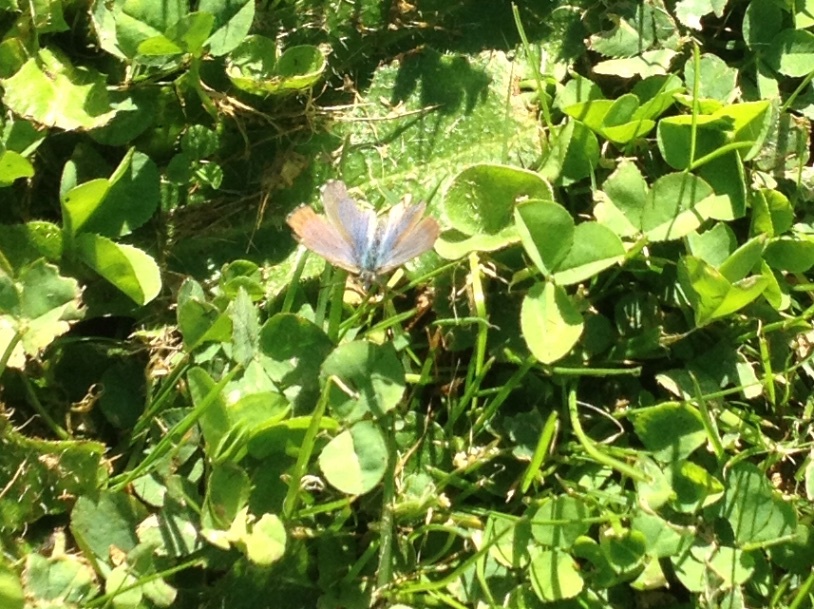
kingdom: Animalia
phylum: Arthropoda
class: Insecta
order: Lepidoptera
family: Lycaenidae
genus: Zizina
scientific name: Zizina oxleyi
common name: Southern blue
